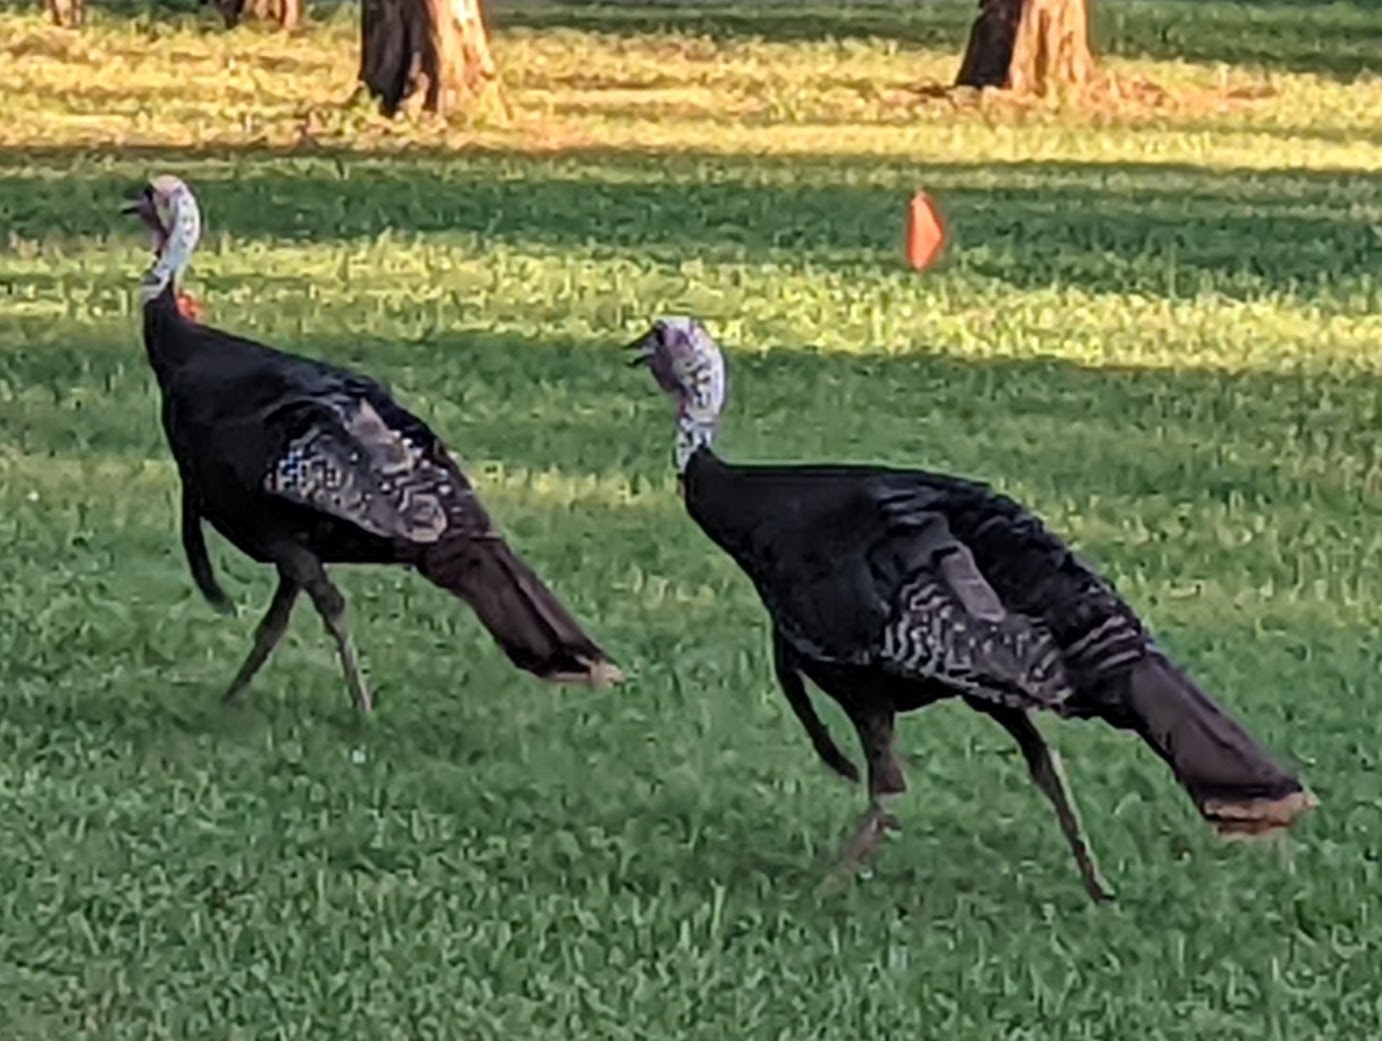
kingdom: Animalia
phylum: Chordata
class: Aves
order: Galliformes
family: Phasianidae
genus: Meleagris
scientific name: Meleagris gallopavo
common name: Wild turkey
